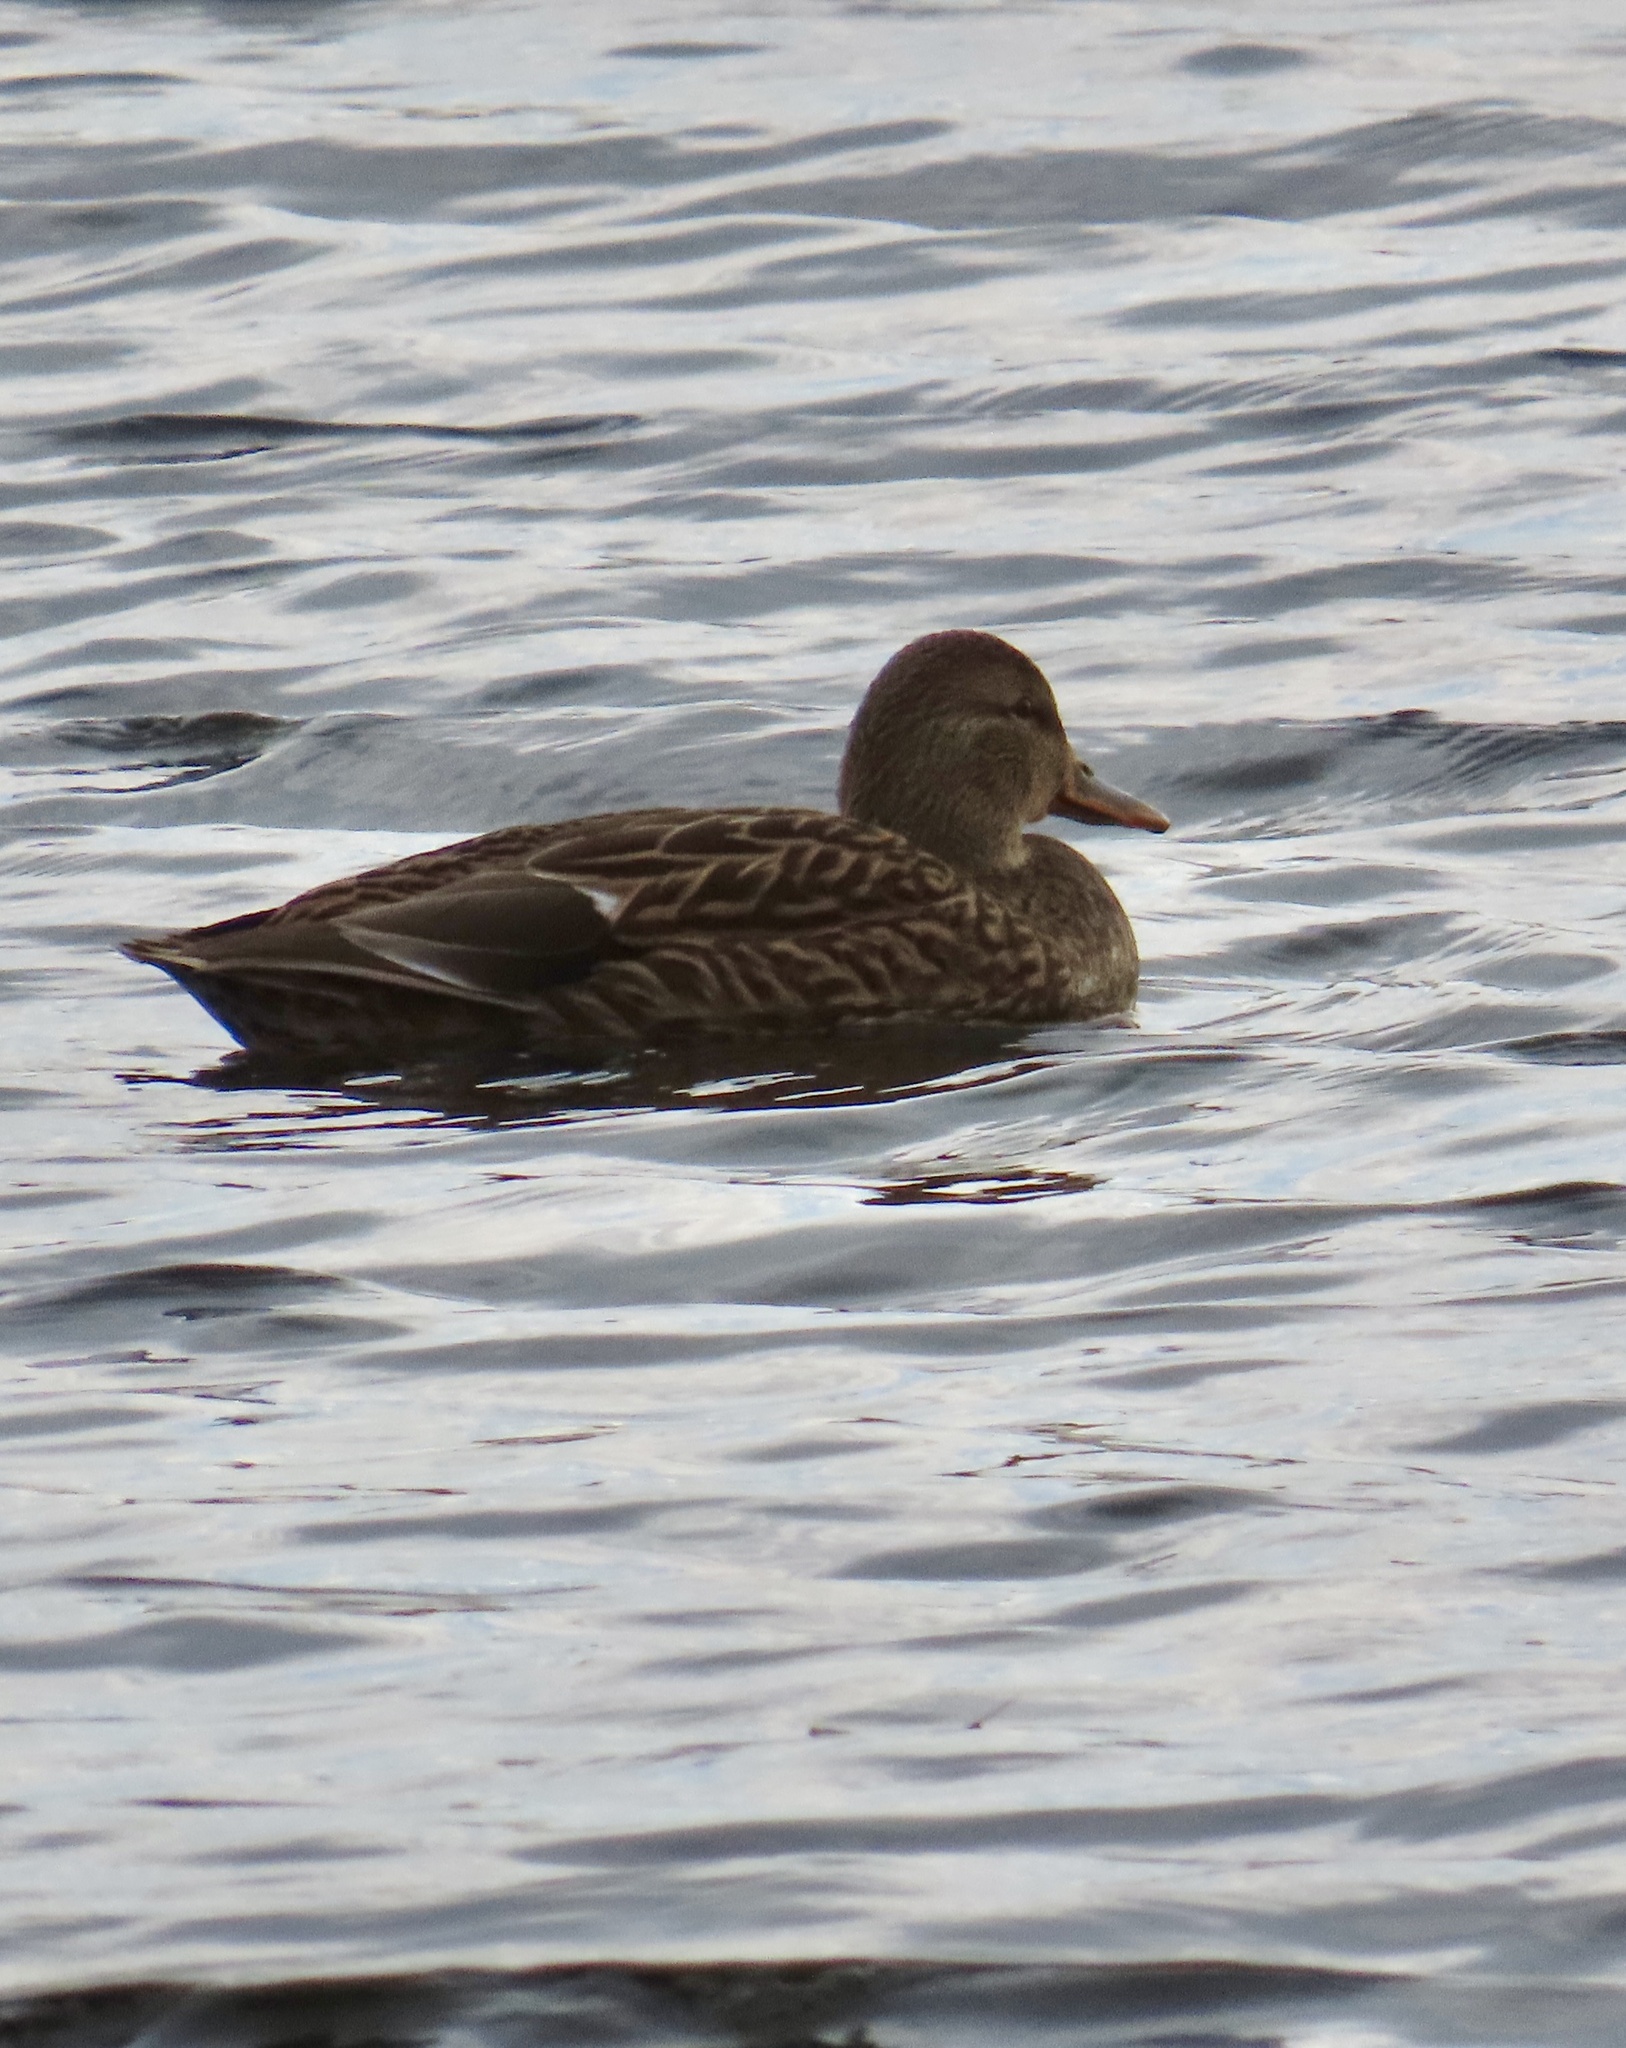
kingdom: Animalia
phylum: Chordata
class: Aves
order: Anseriformes
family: Anatidae
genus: Anas
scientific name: Anas platyrhynchos
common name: Mallard
